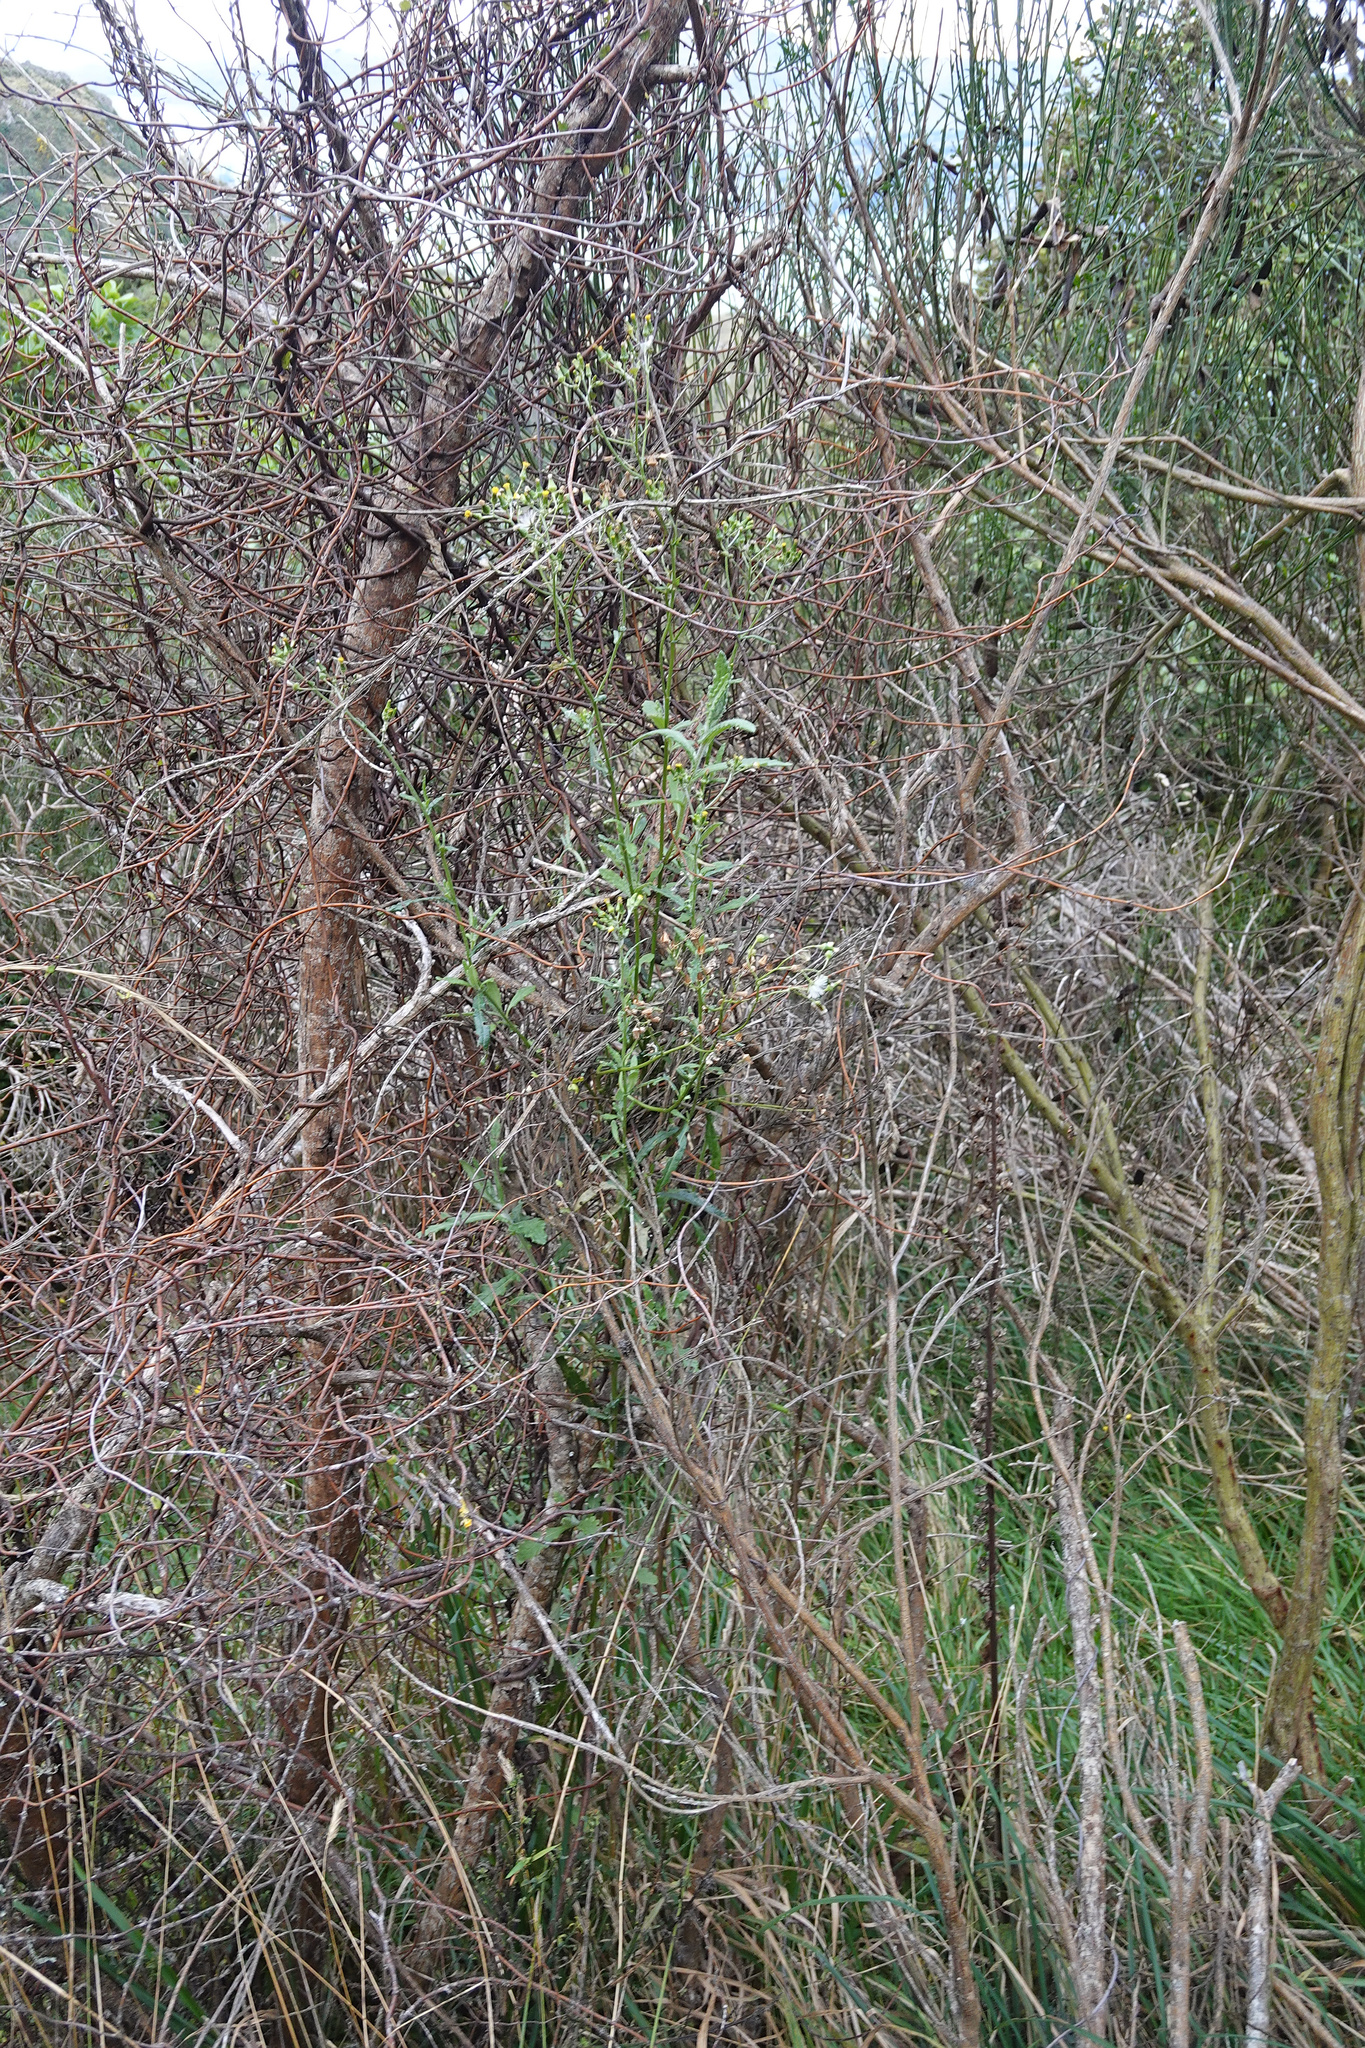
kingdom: Plantae
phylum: Tracheophyta
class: Magnoliopsida
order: Asterales
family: Asteraceae
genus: Senecio
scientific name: Senecio glomeratus
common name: Cutleaf burnweed
